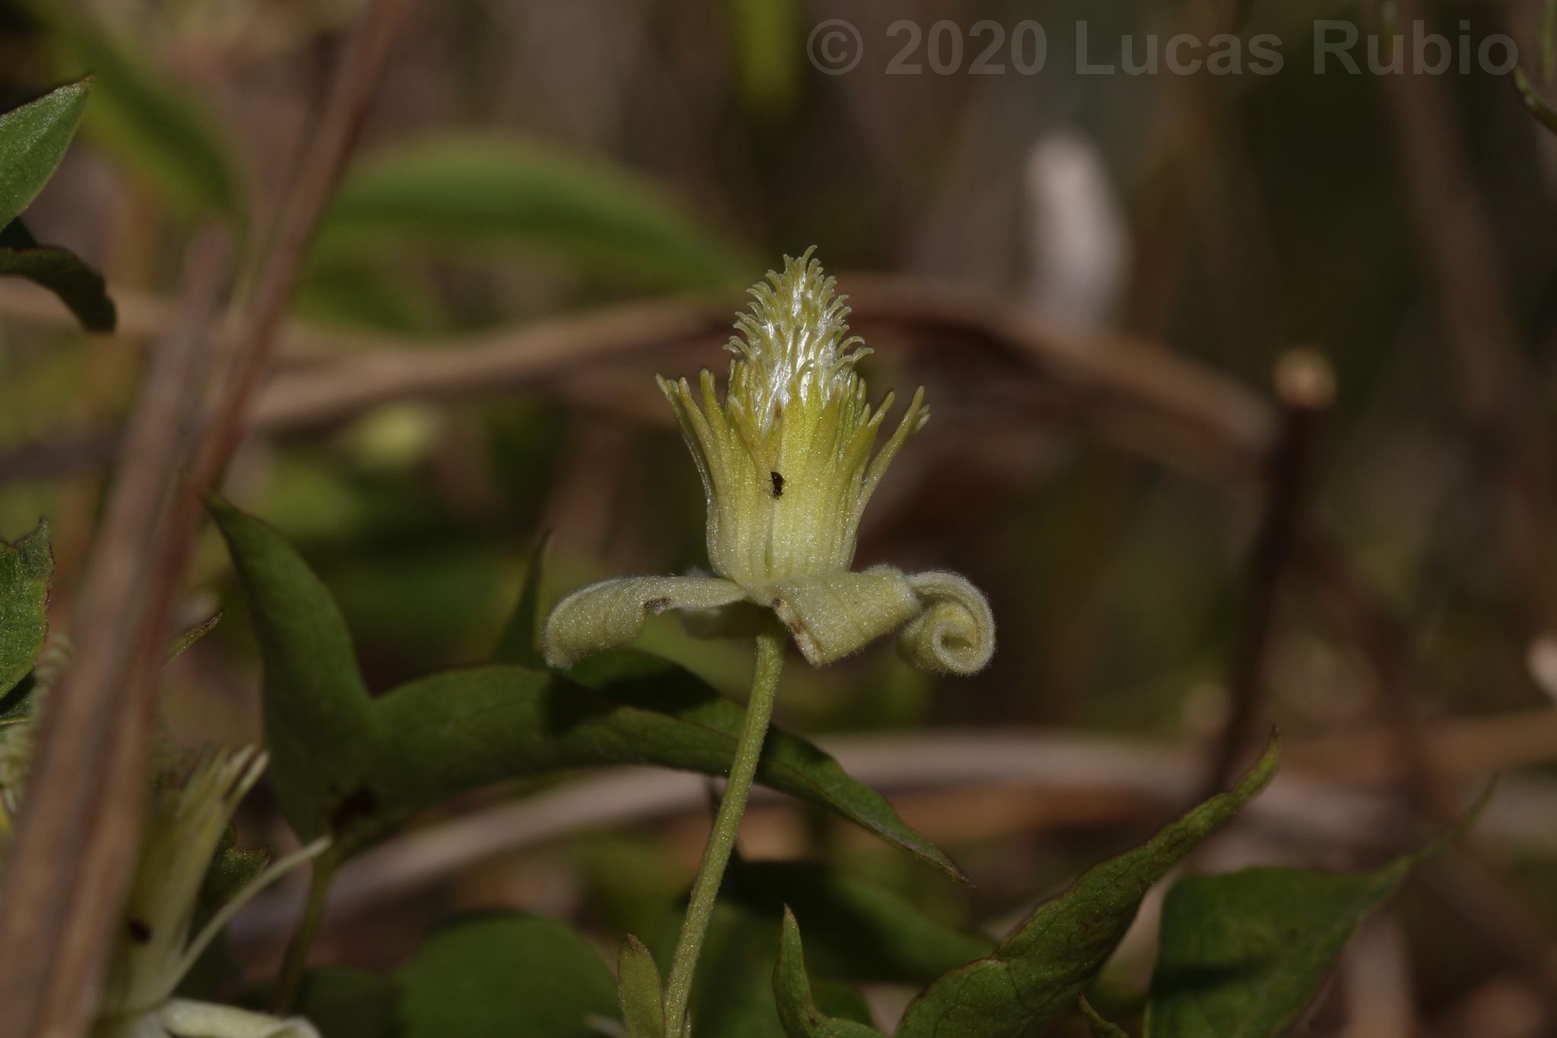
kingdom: Plantae
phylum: Tracheophyta
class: Magnoliopsida
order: Ranunculales
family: Ranunculaceae
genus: Clematis
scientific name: Clematis montevidensis
